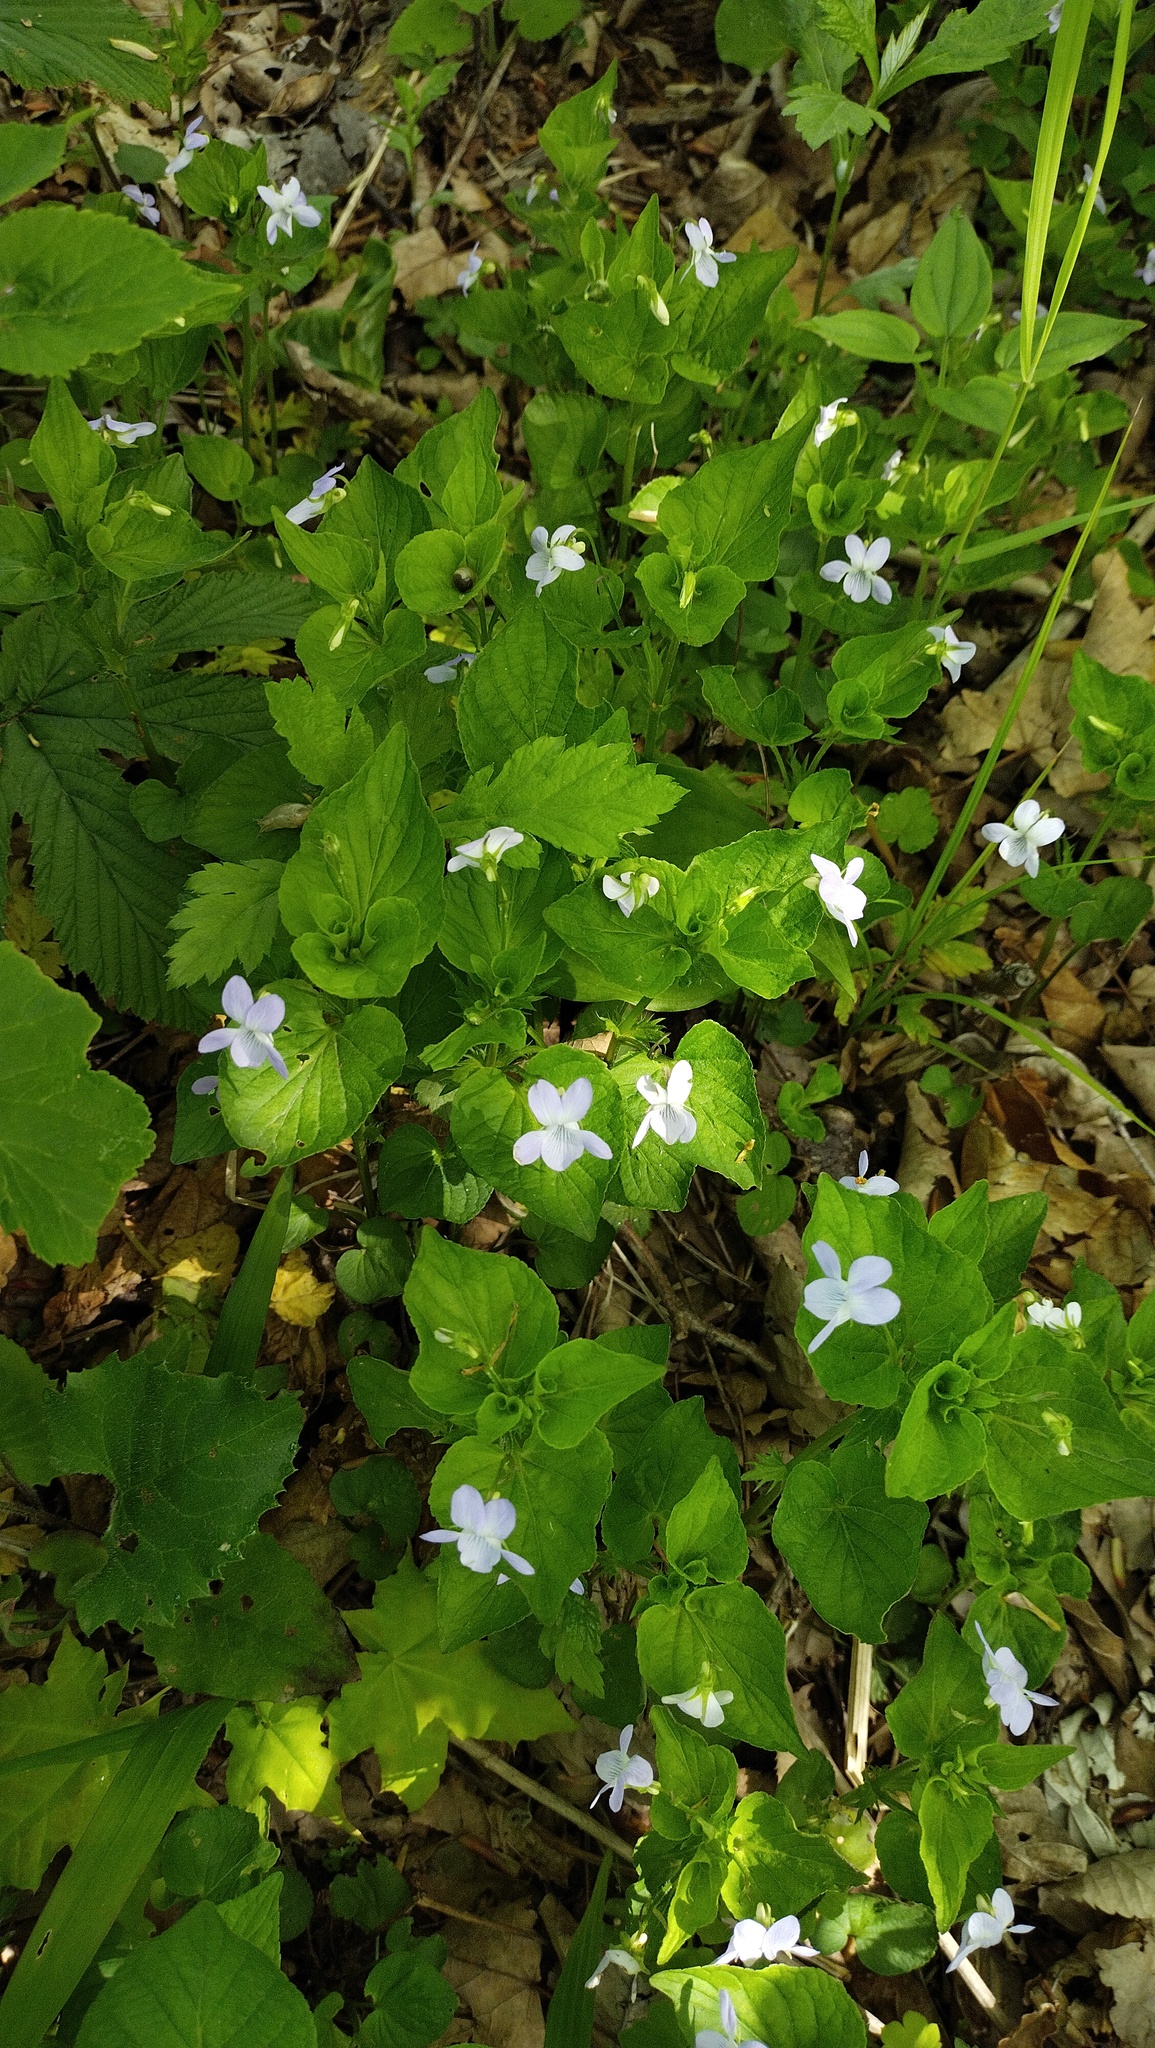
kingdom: Plantae
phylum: Tracheophyta
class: Magnoliopsida
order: Malpighiales
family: Violaceae
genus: Viola
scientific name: Viola acuminata
